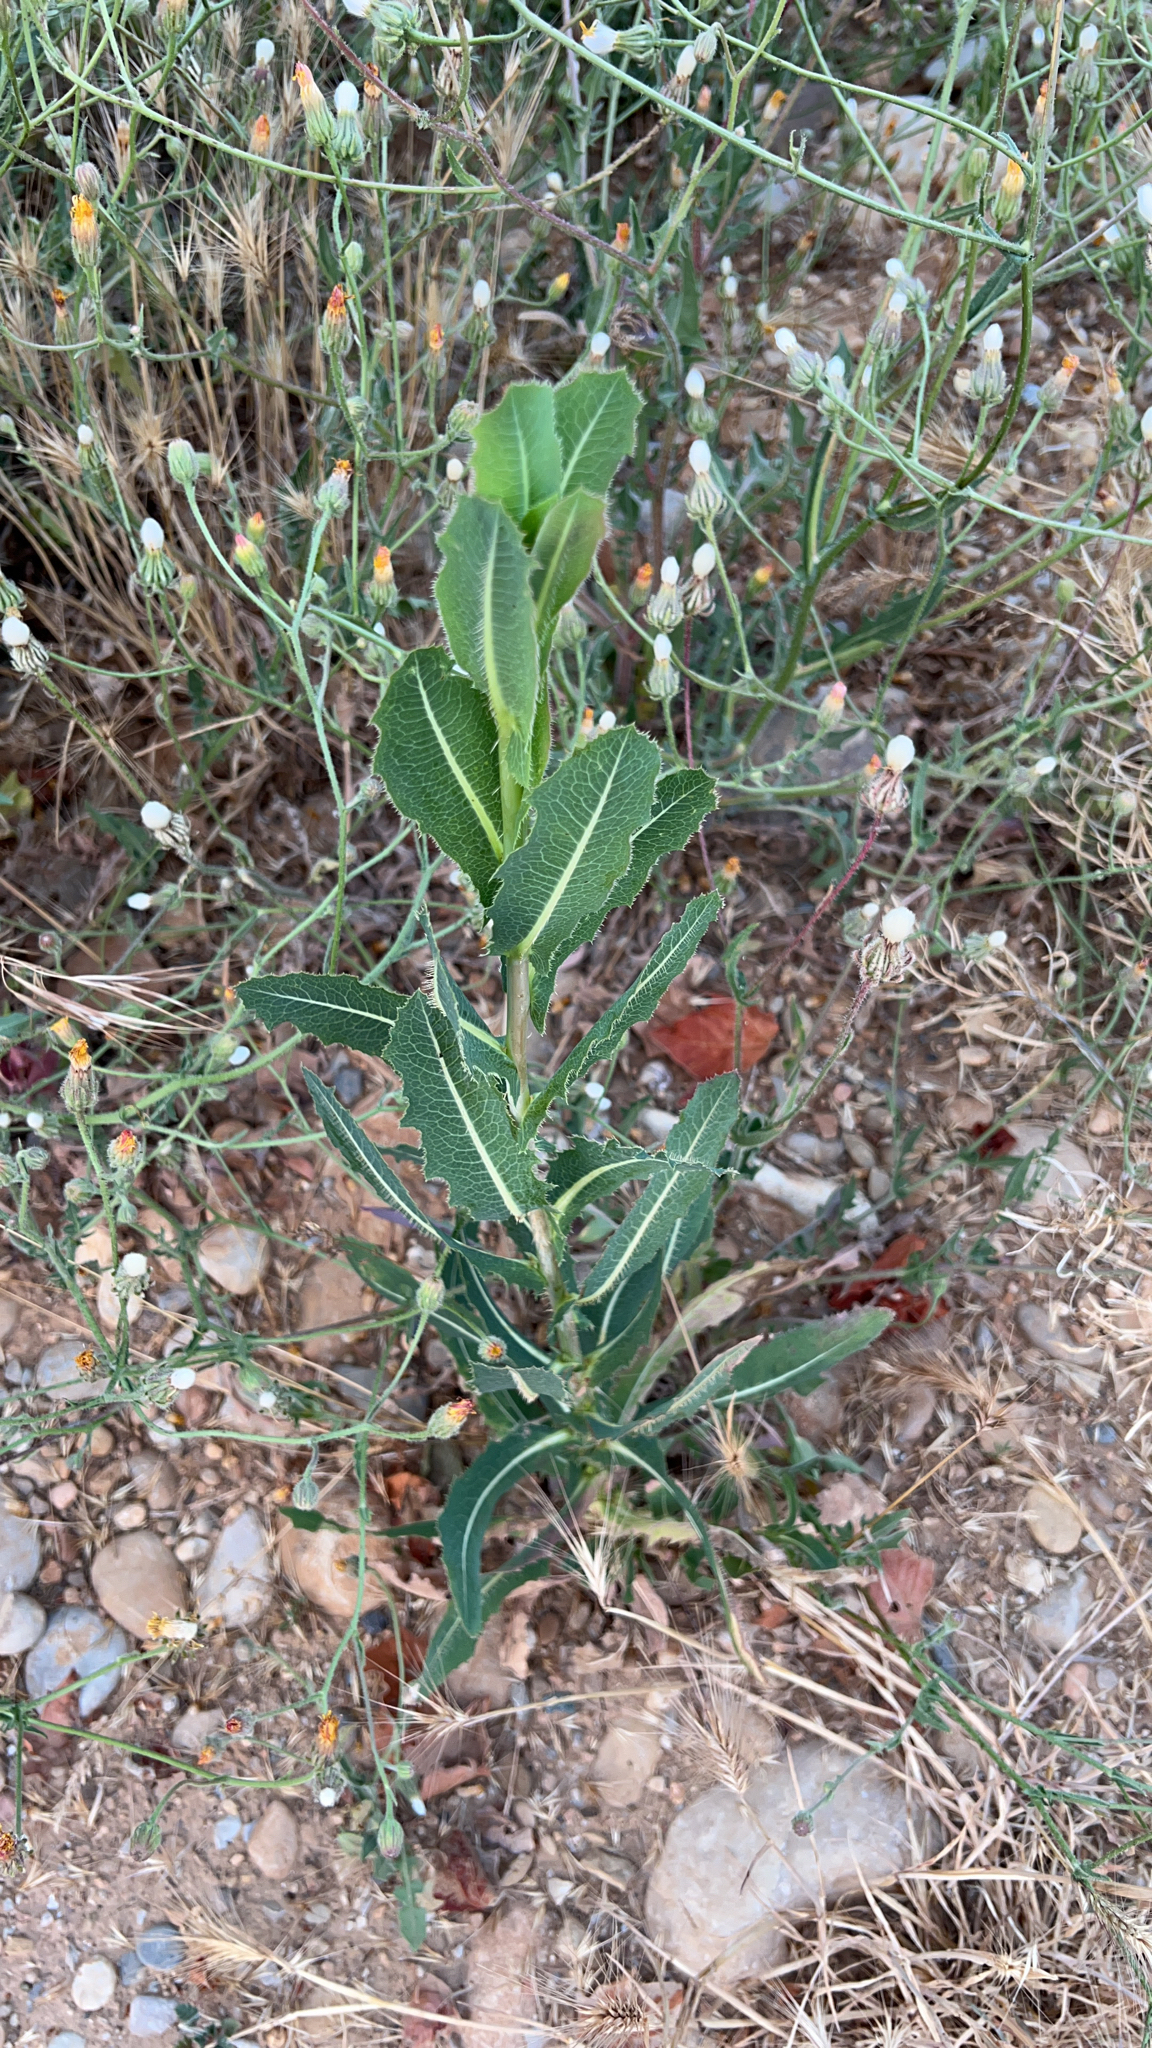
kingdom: Plantae
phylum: Tracheophyta
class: Magnoliopsida
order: Asterales
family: Asteraceae
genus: Lactuca
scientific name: Lactuca serriola
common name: Prickly lettuce
